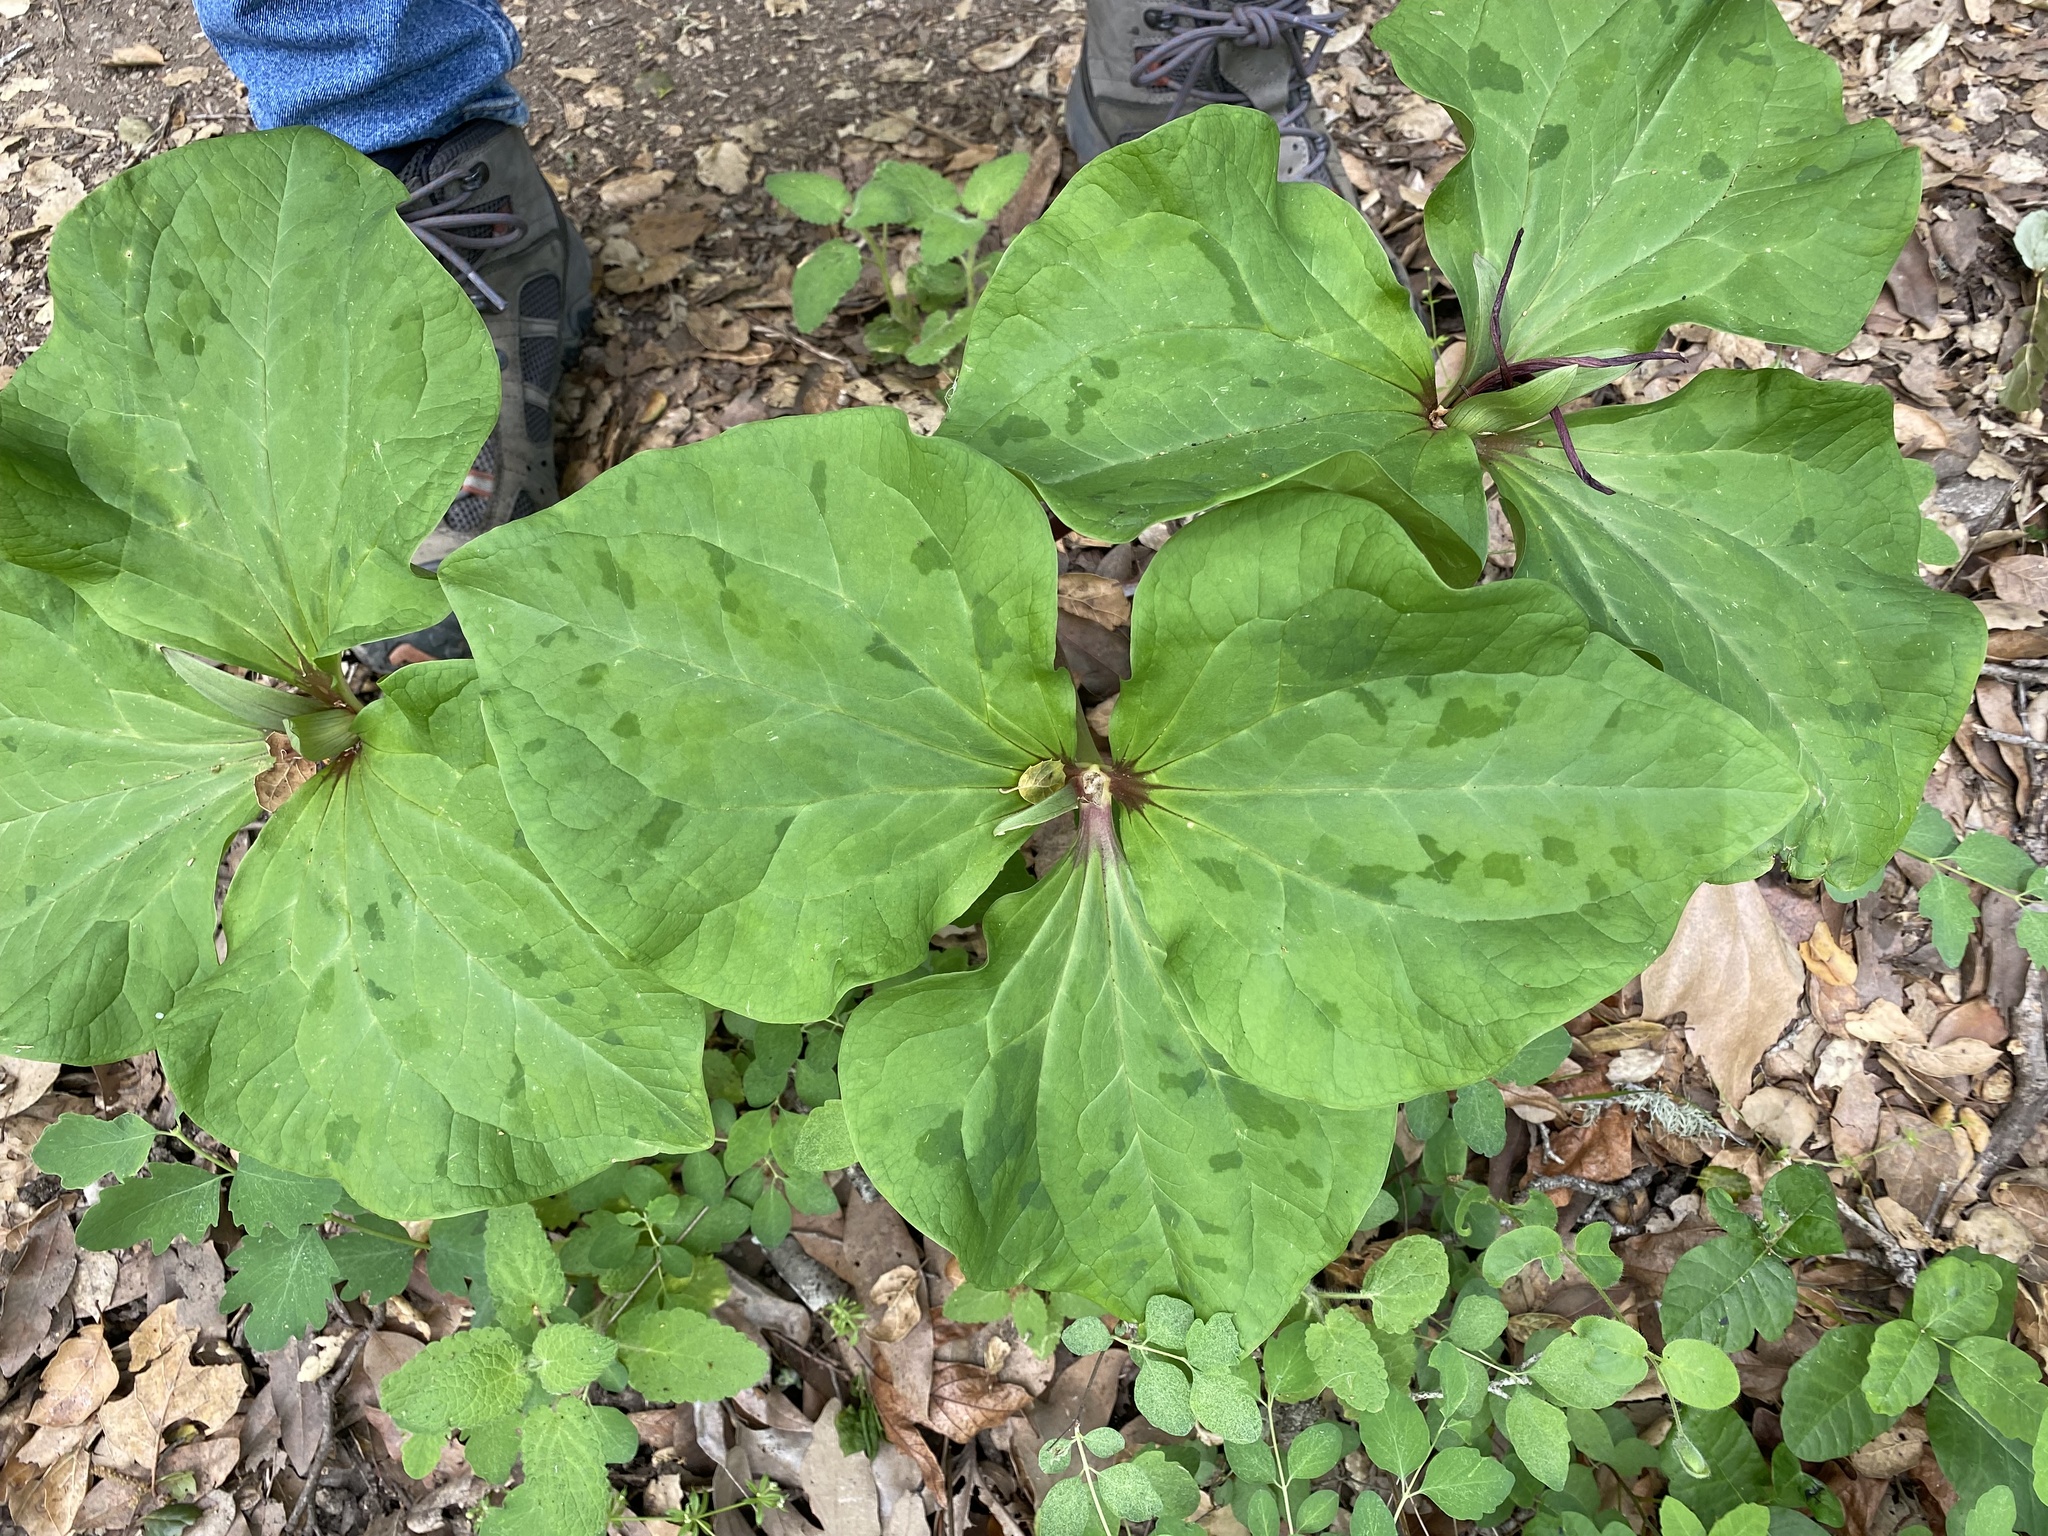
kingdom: Plantae
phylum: Tracheophyta
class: Liliopsida
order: Liliales
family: Melanthiaceae
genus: Trillium
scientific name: Trillium chloropetalum
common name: Giant trillium
